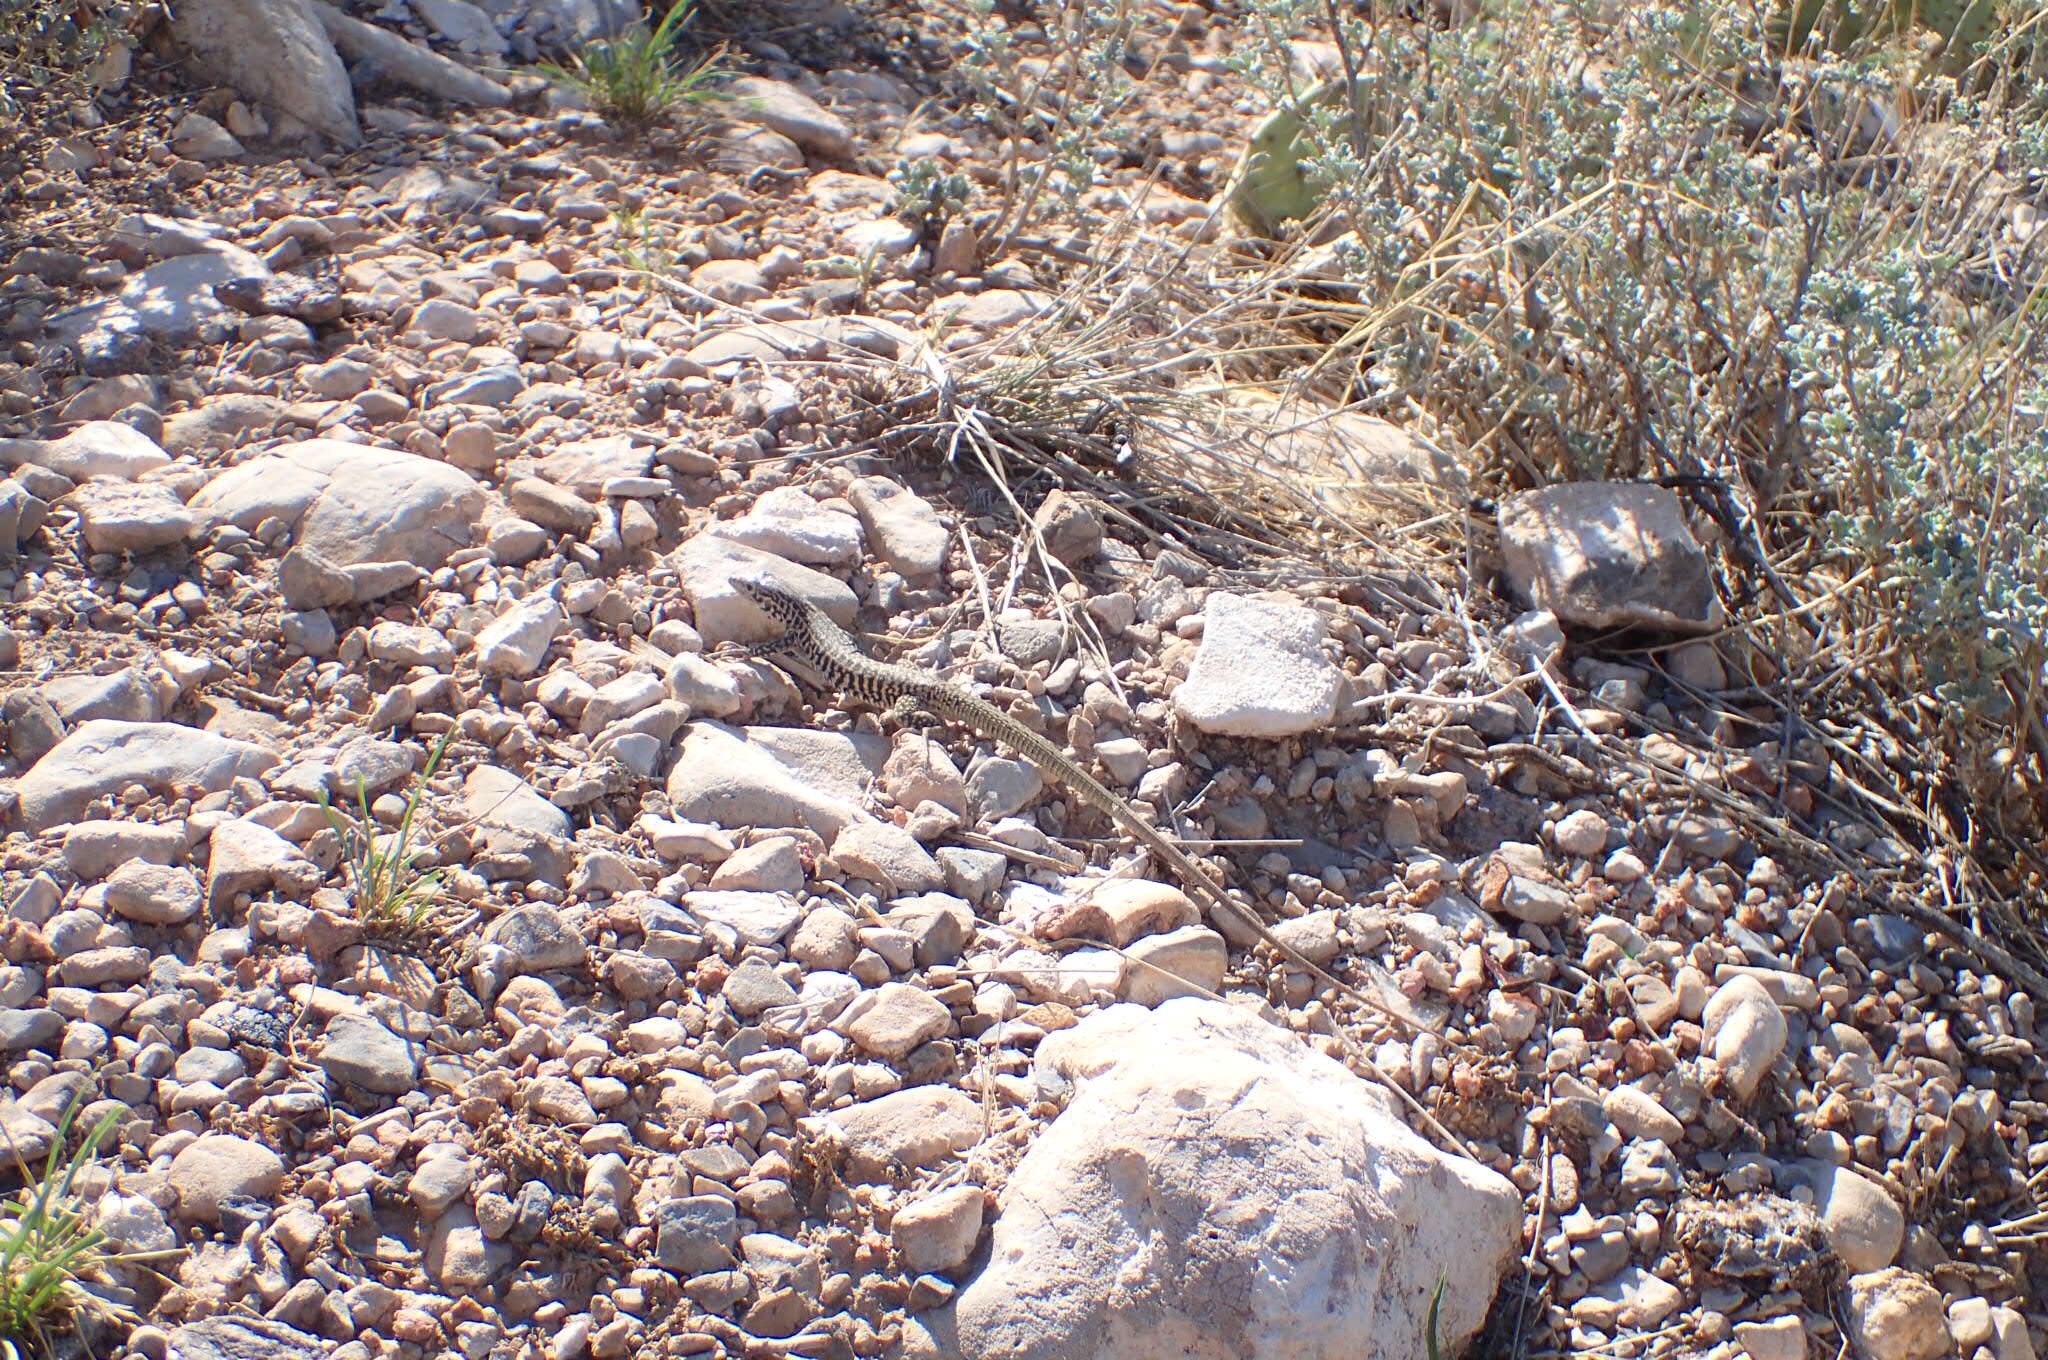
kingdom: Animalia
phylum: Chordata
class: Squamata
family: Teiidae
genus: Aspidoscelis
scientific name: Aspidoscelis tesselatus
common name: Common checkered whiptail [tesselata]
